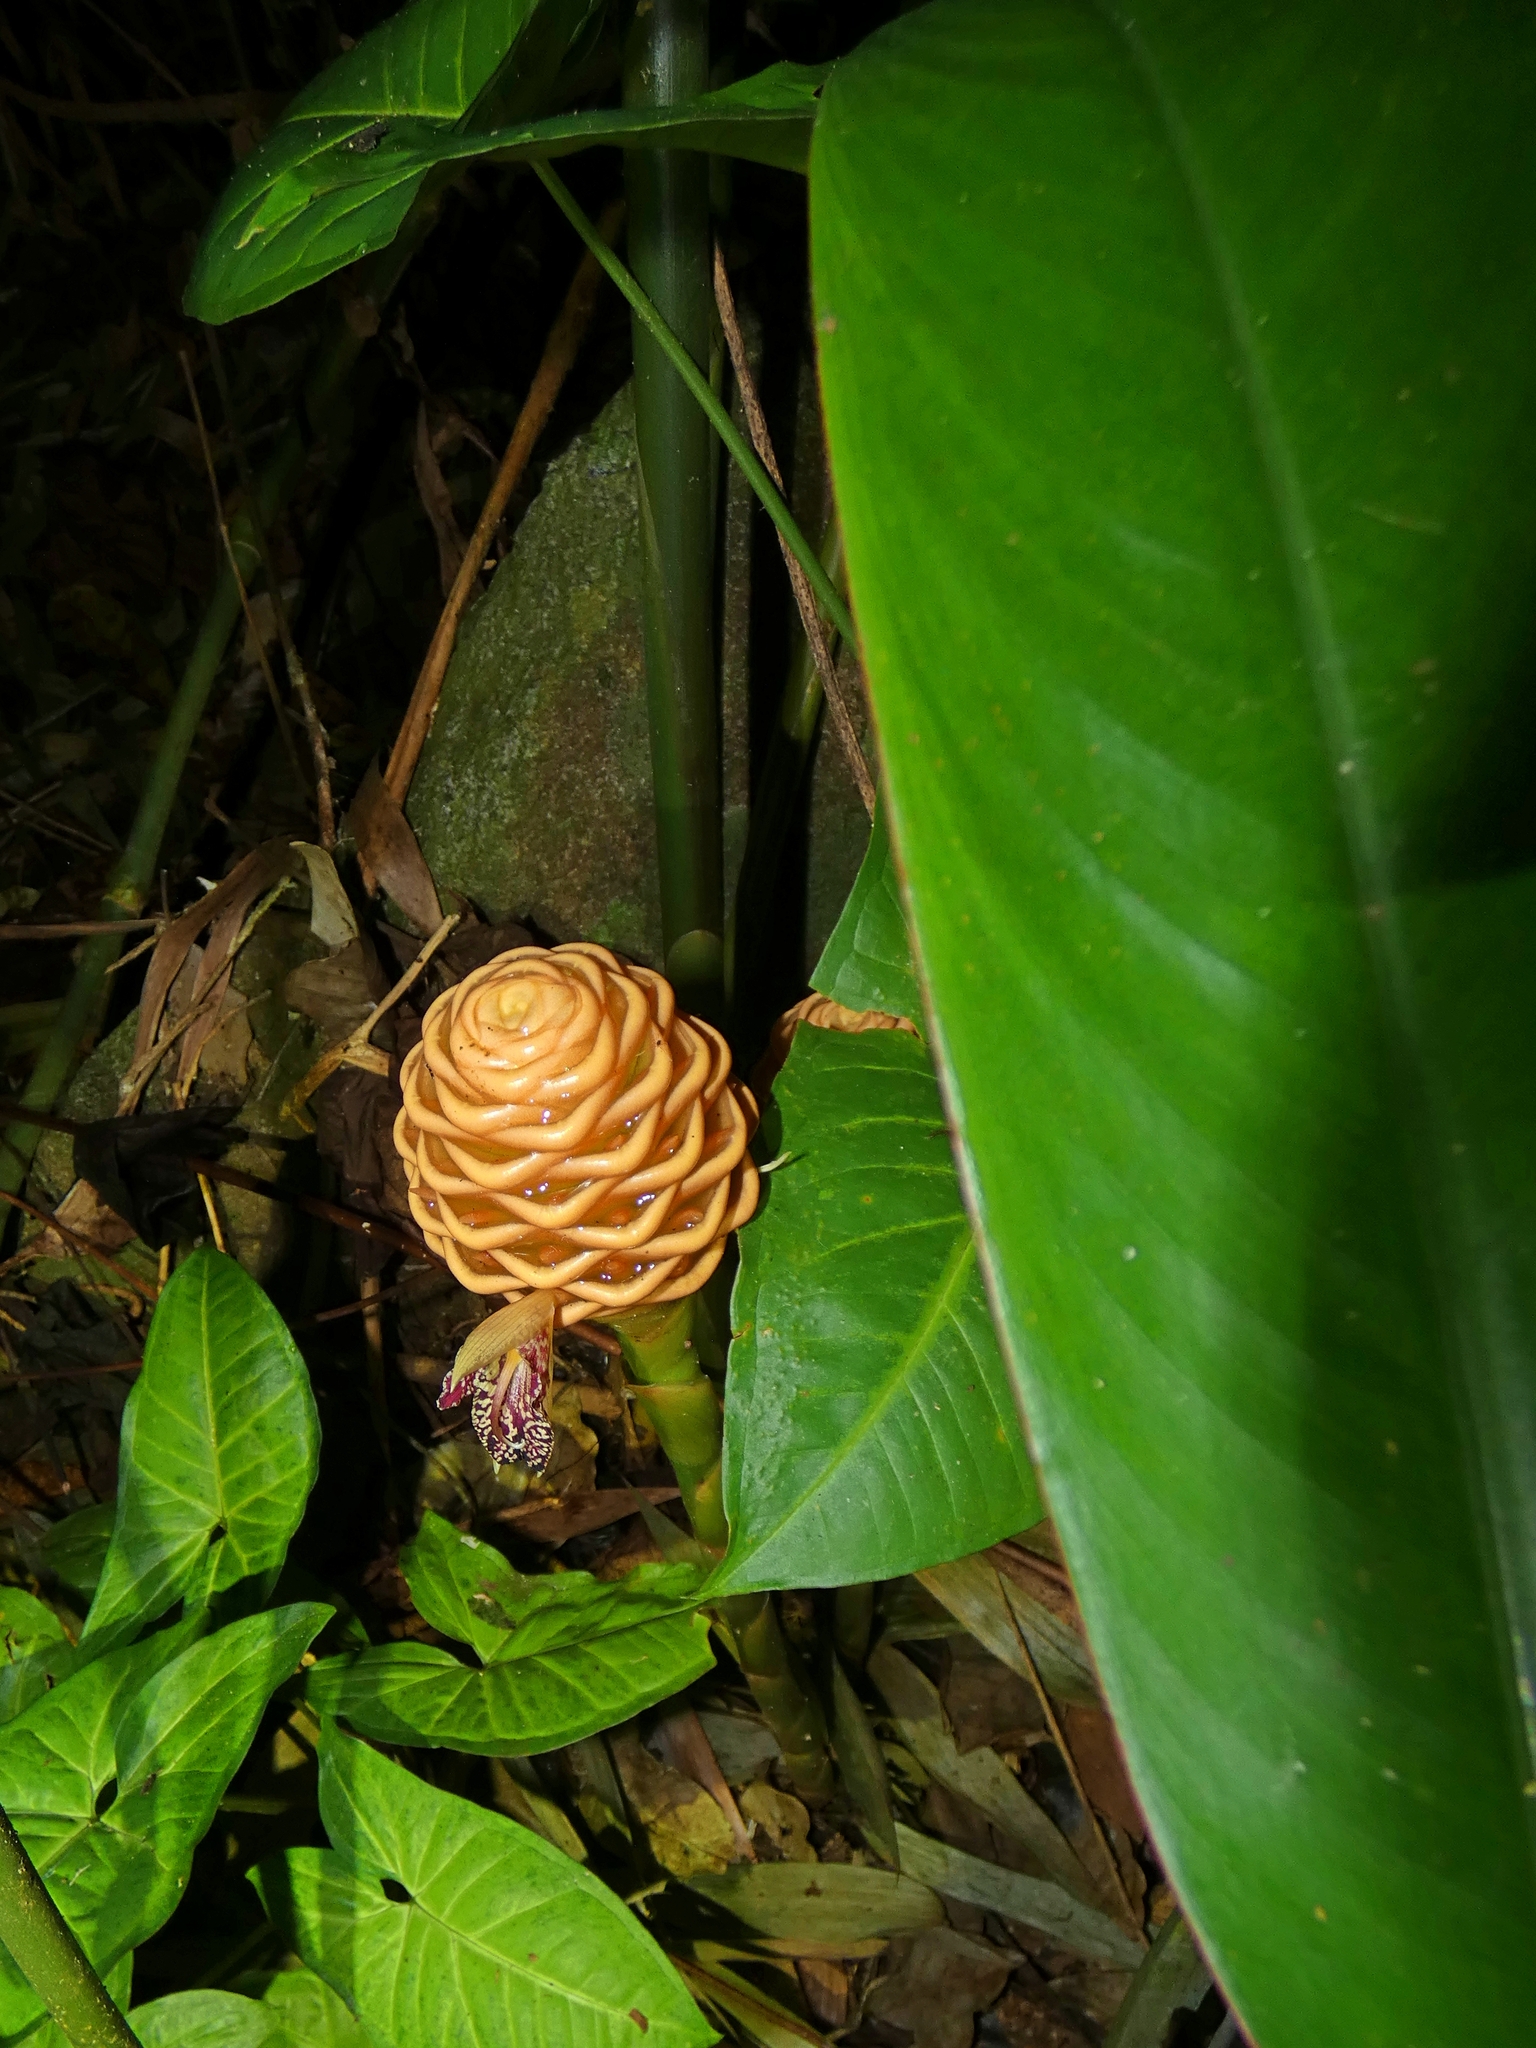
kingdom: Plantae
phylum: Tracheophyta
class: Liliopsida
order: Zingiberales
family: Zingiberaceae
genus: Zingiber
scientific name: Zingiber spectabile
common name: Beehive ginger
